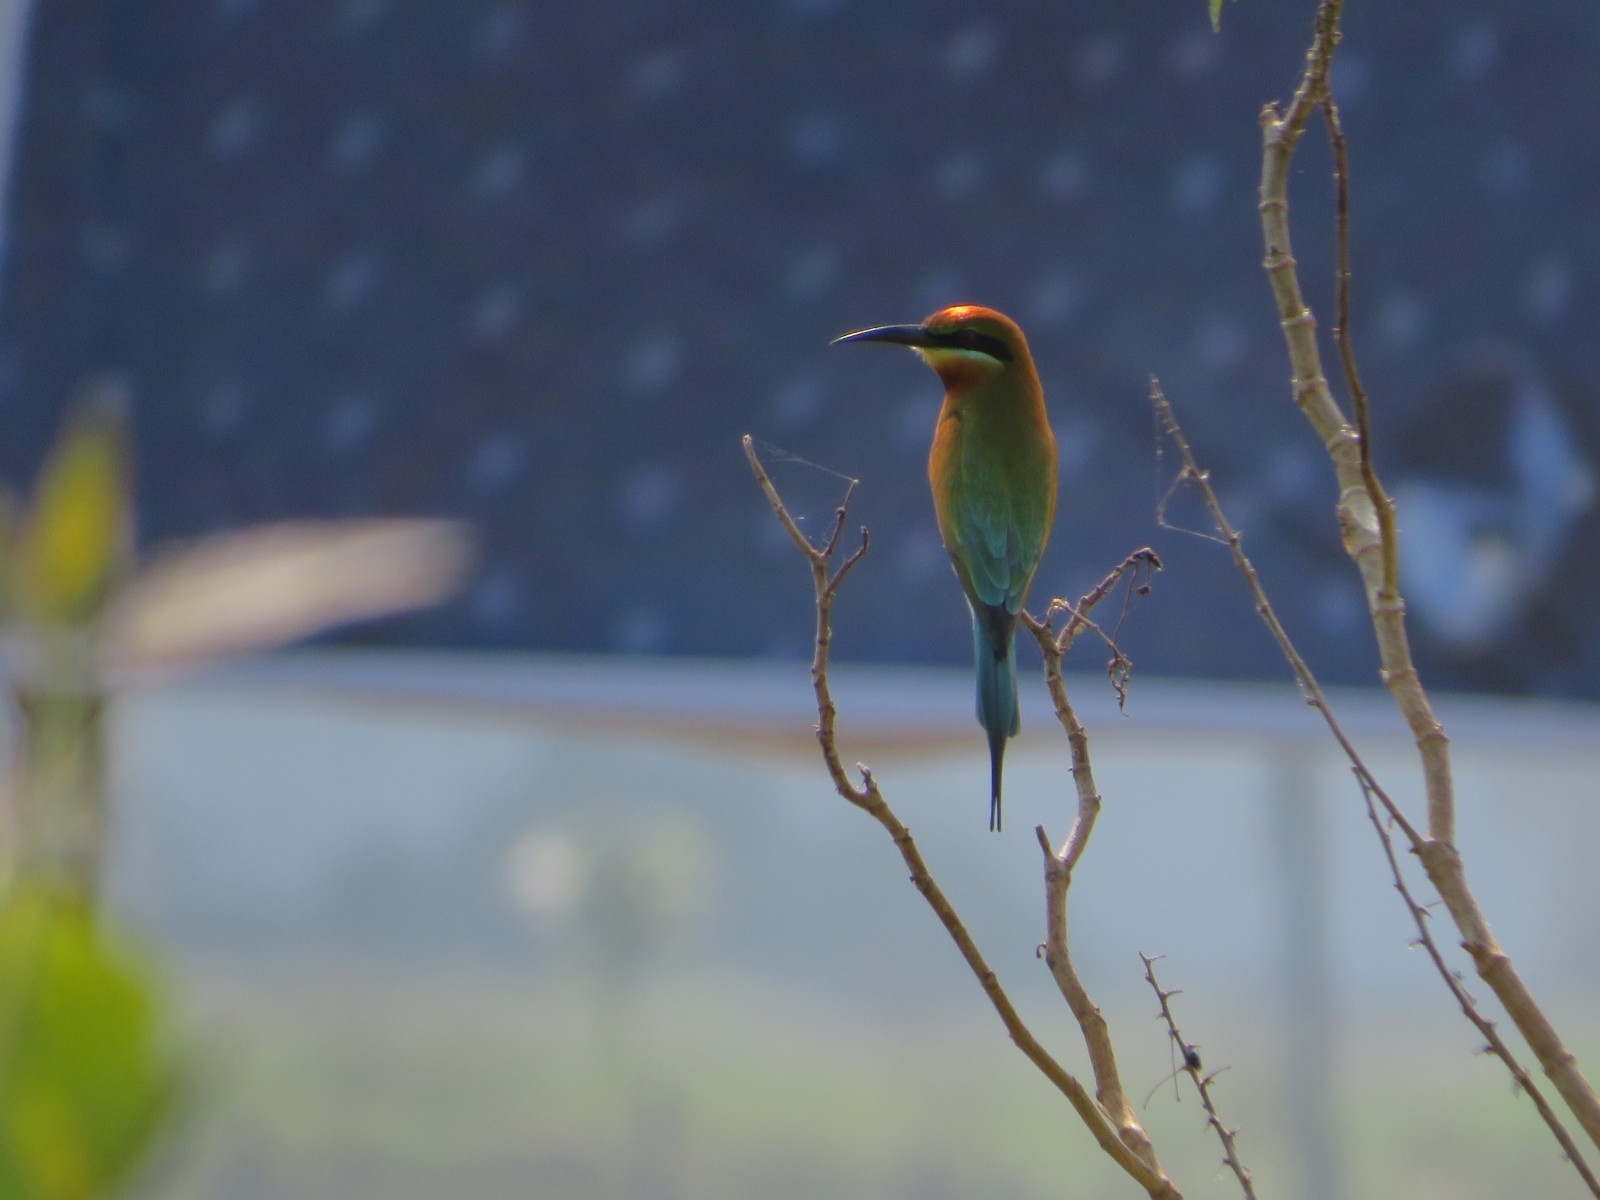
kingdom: Animalia
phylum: Chordata
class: Aves
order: Coraciiformes
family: Meropidae
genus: Merops
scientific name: Merops philippinus
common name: Blue-tailed bee-eater
